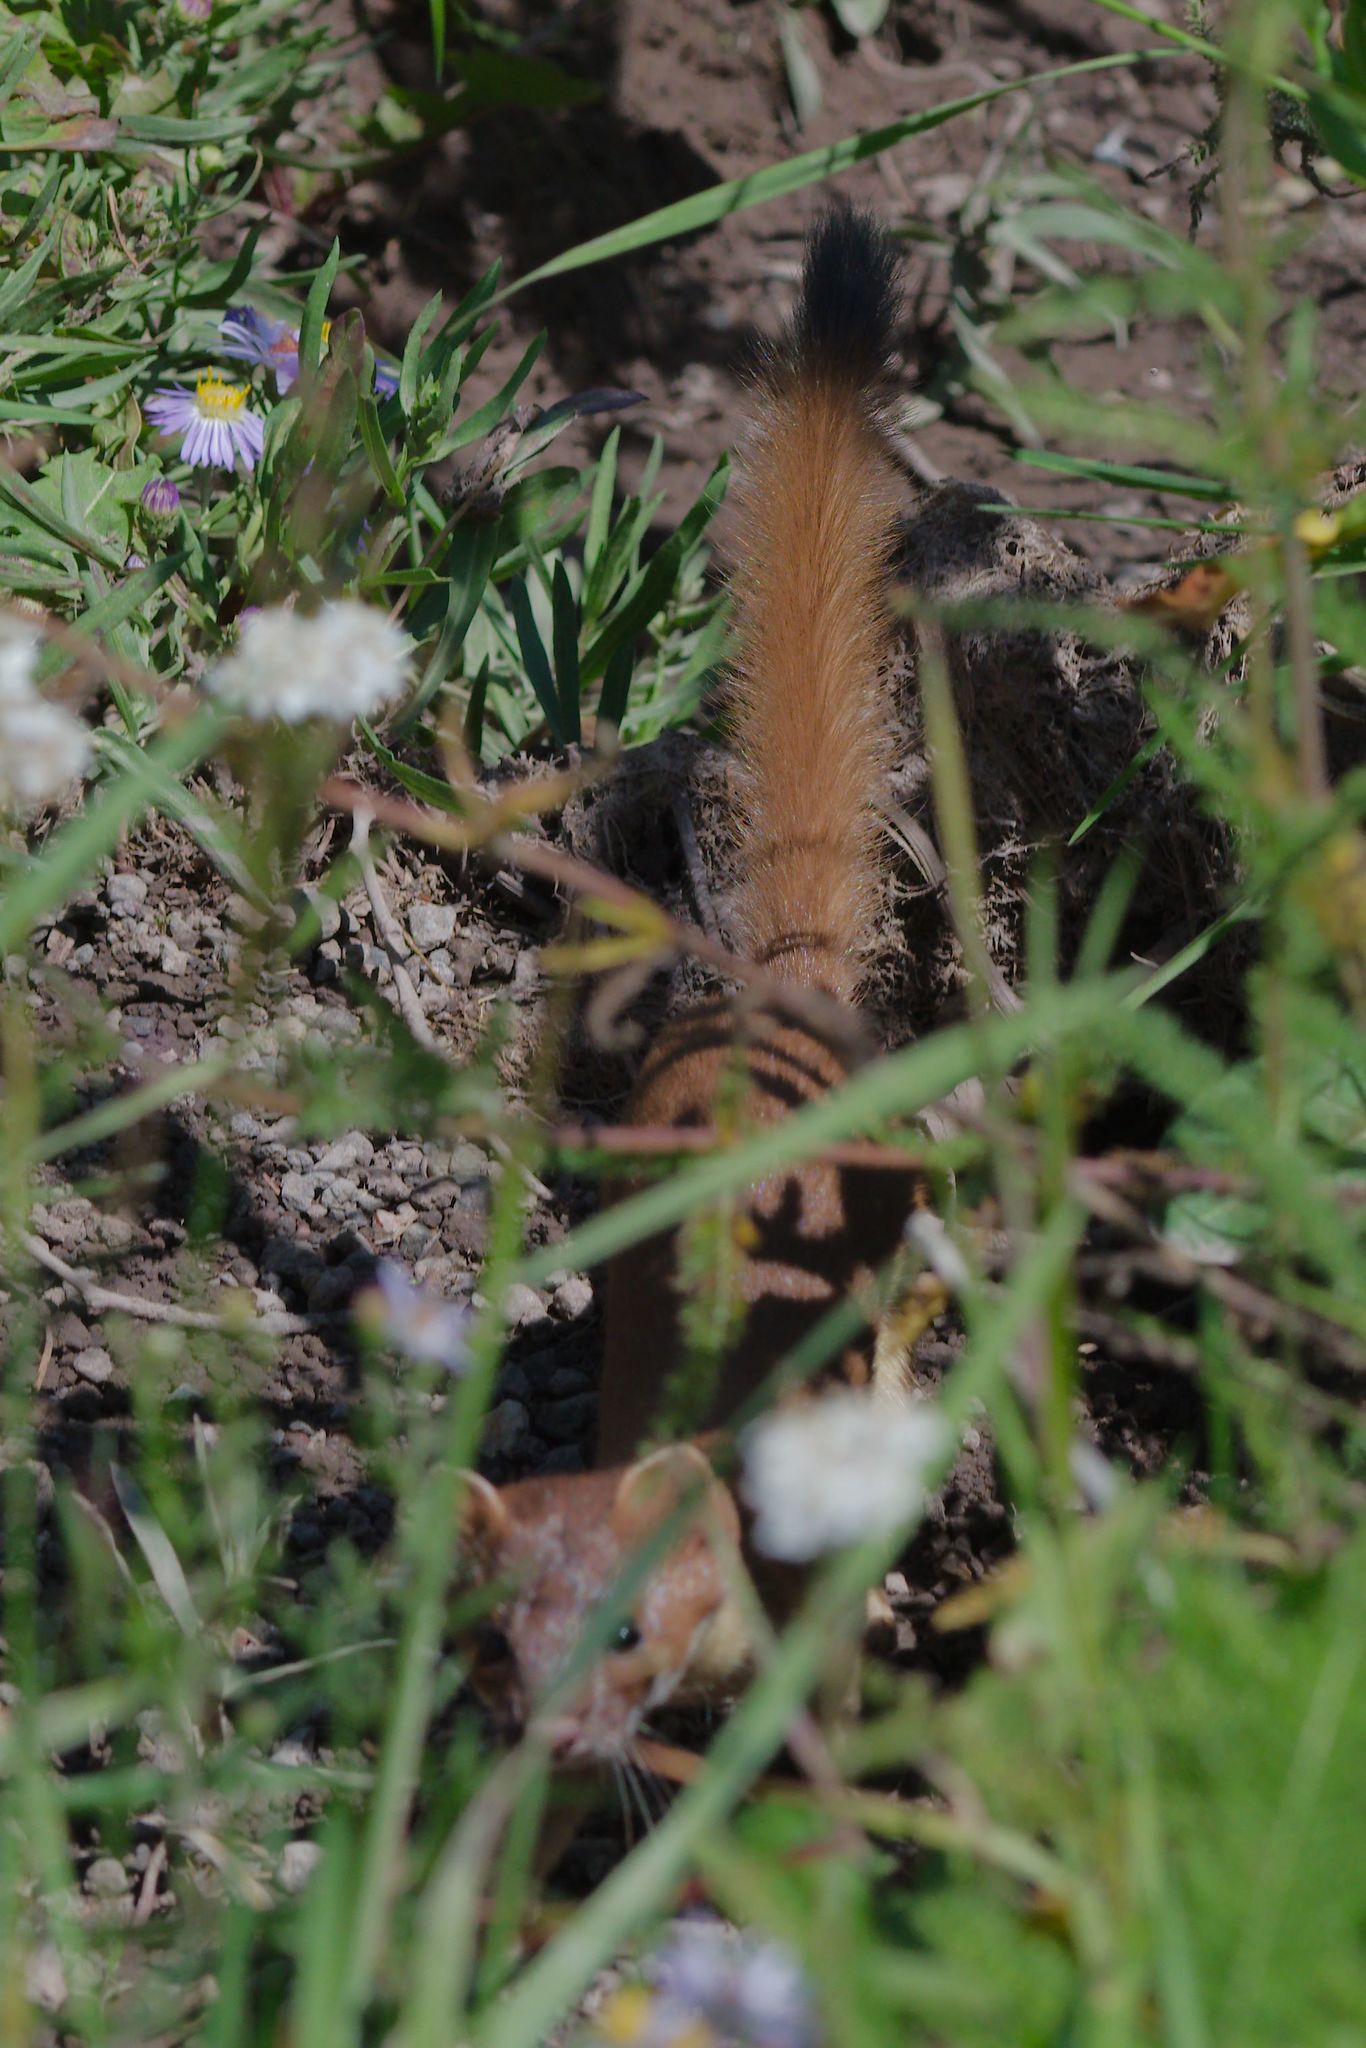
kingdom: Animalia
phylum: Chordata
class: Mammalia
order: Carnivora
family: Mustelidae
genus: Mustela
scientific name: Mustela
